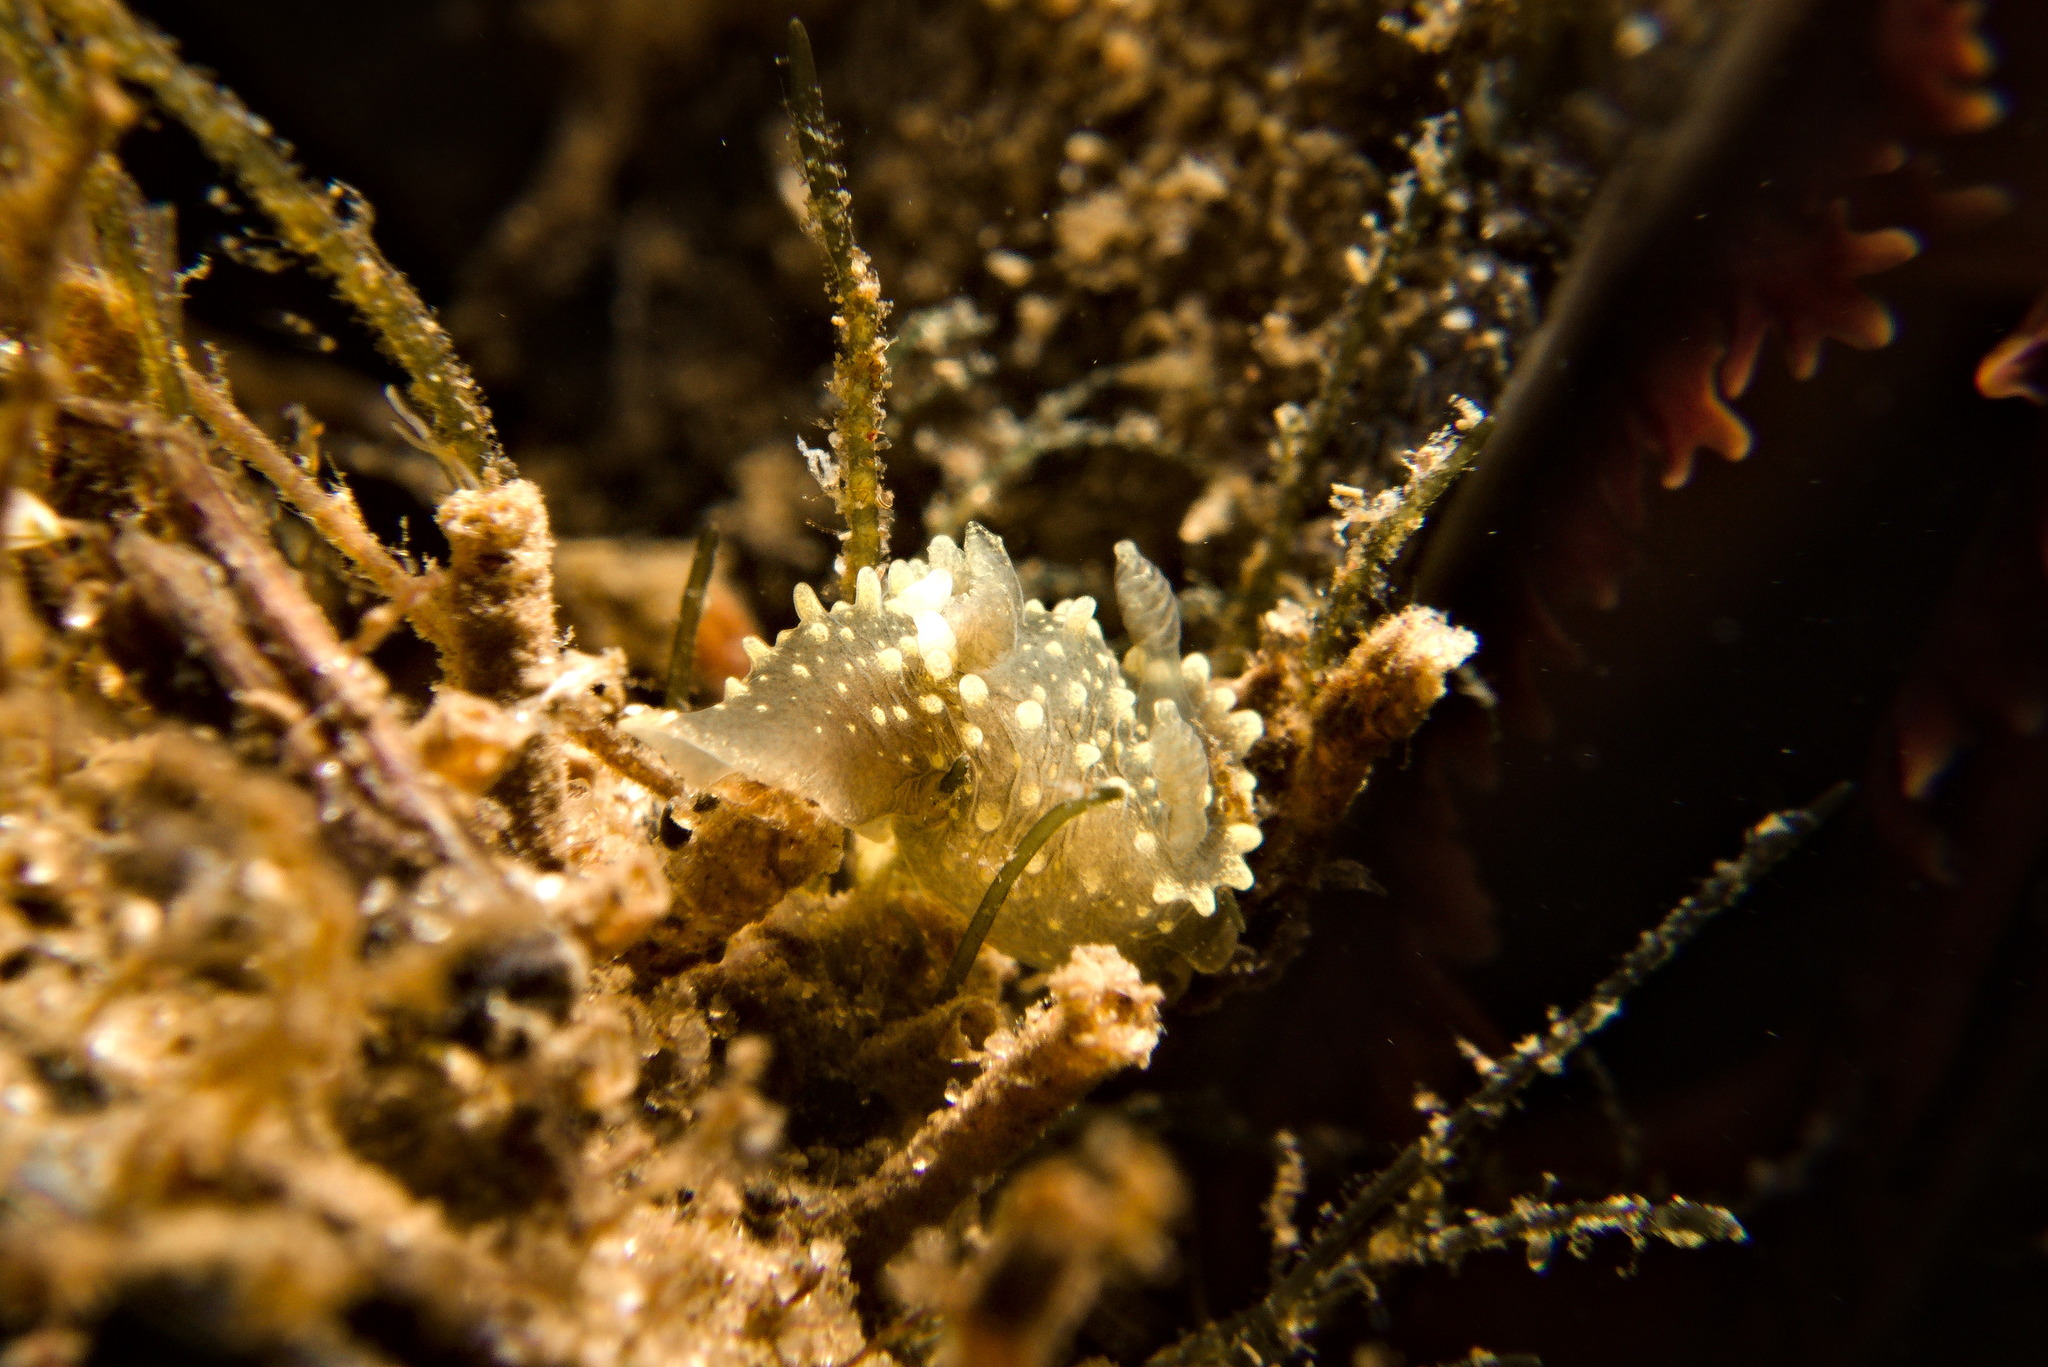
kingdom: Animalia
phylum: Mollusca
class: Gastropoda
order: Nudibranchia
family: Polyceridae
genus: Palio
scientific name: Palio dubia
